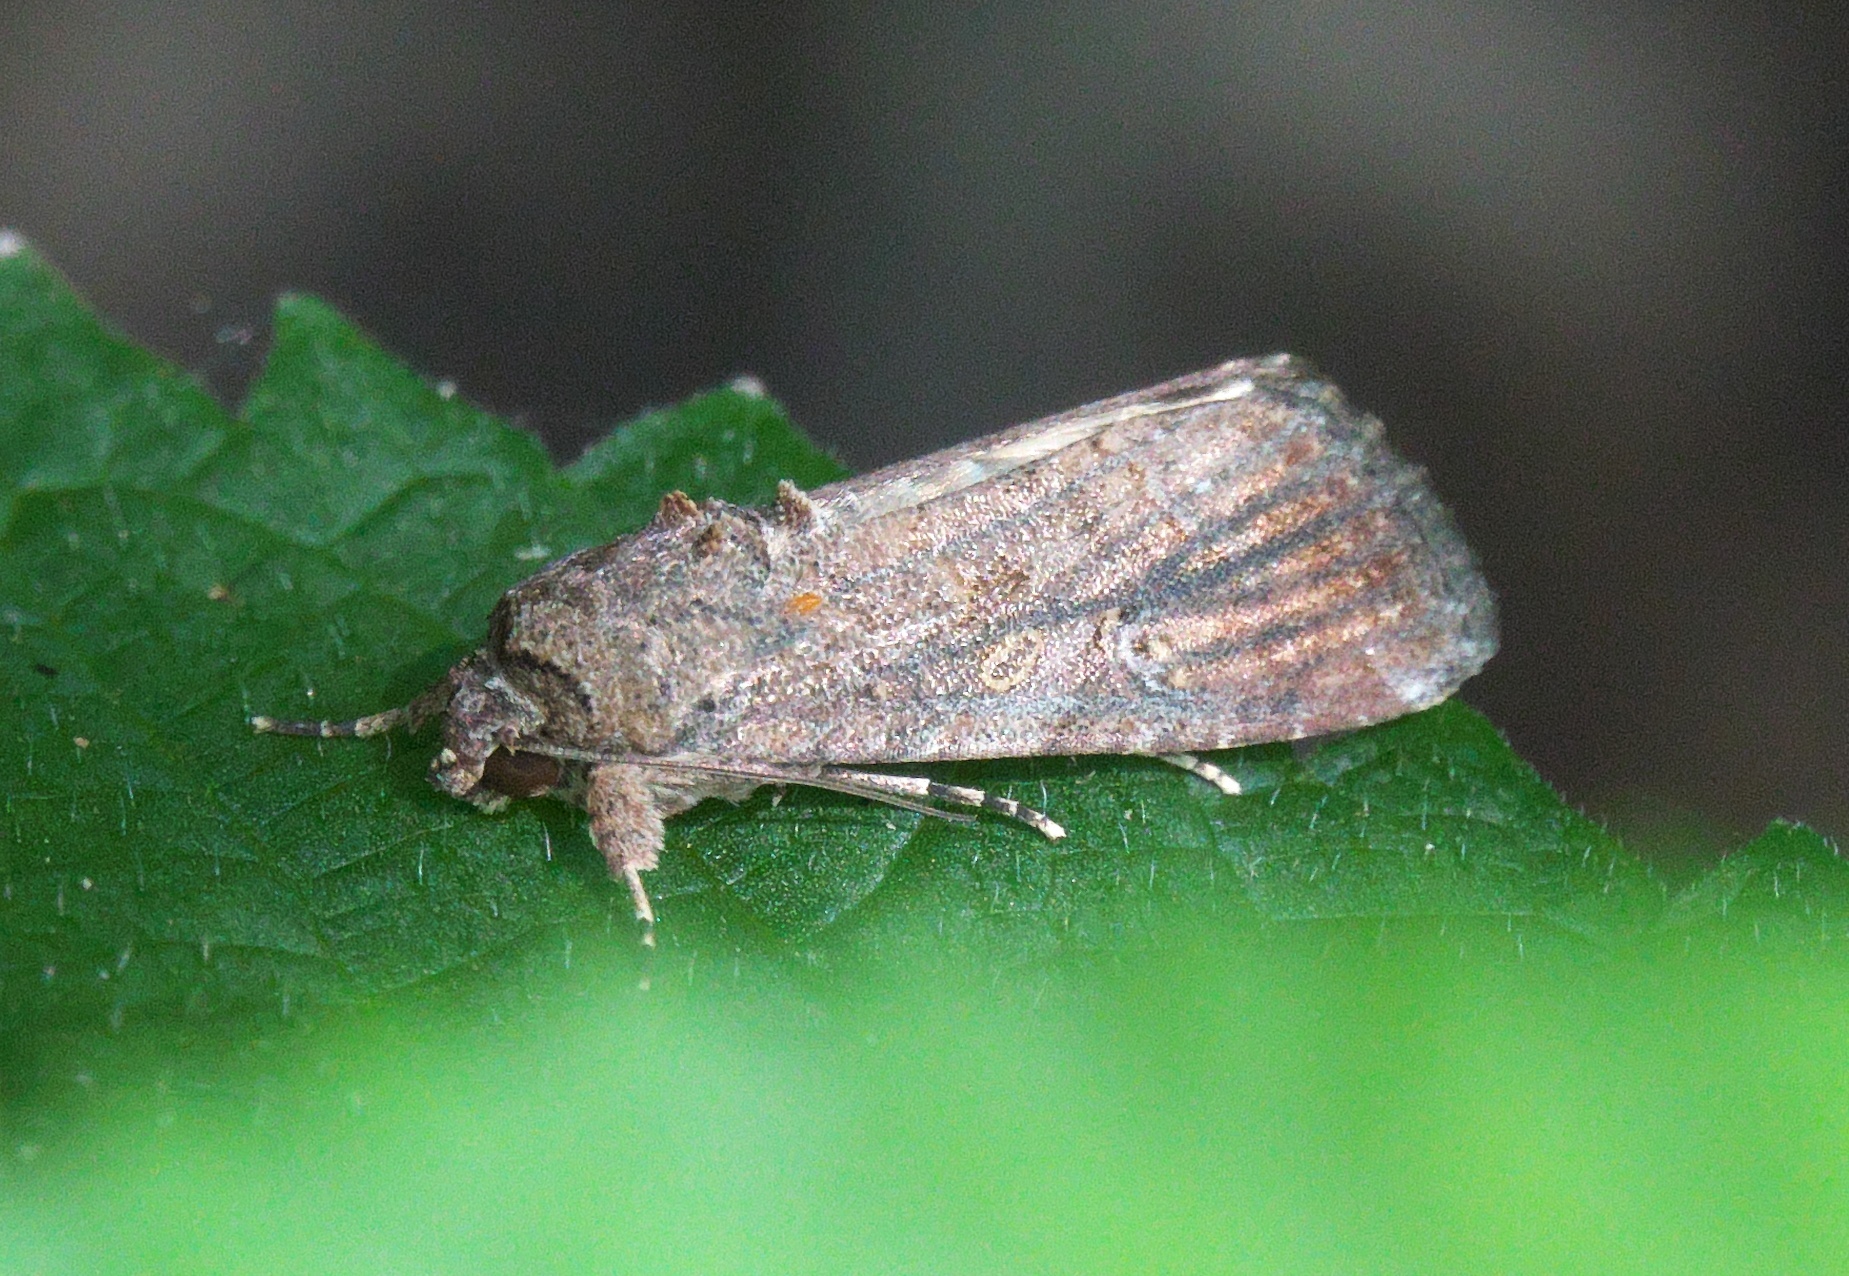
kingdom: Animalia
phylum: Arthropoda
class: Insecta
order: Lepidoptera
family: Noctuidae
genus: Spodoptera
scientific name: Spodoptera frugiperda
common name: Fall armyworm
